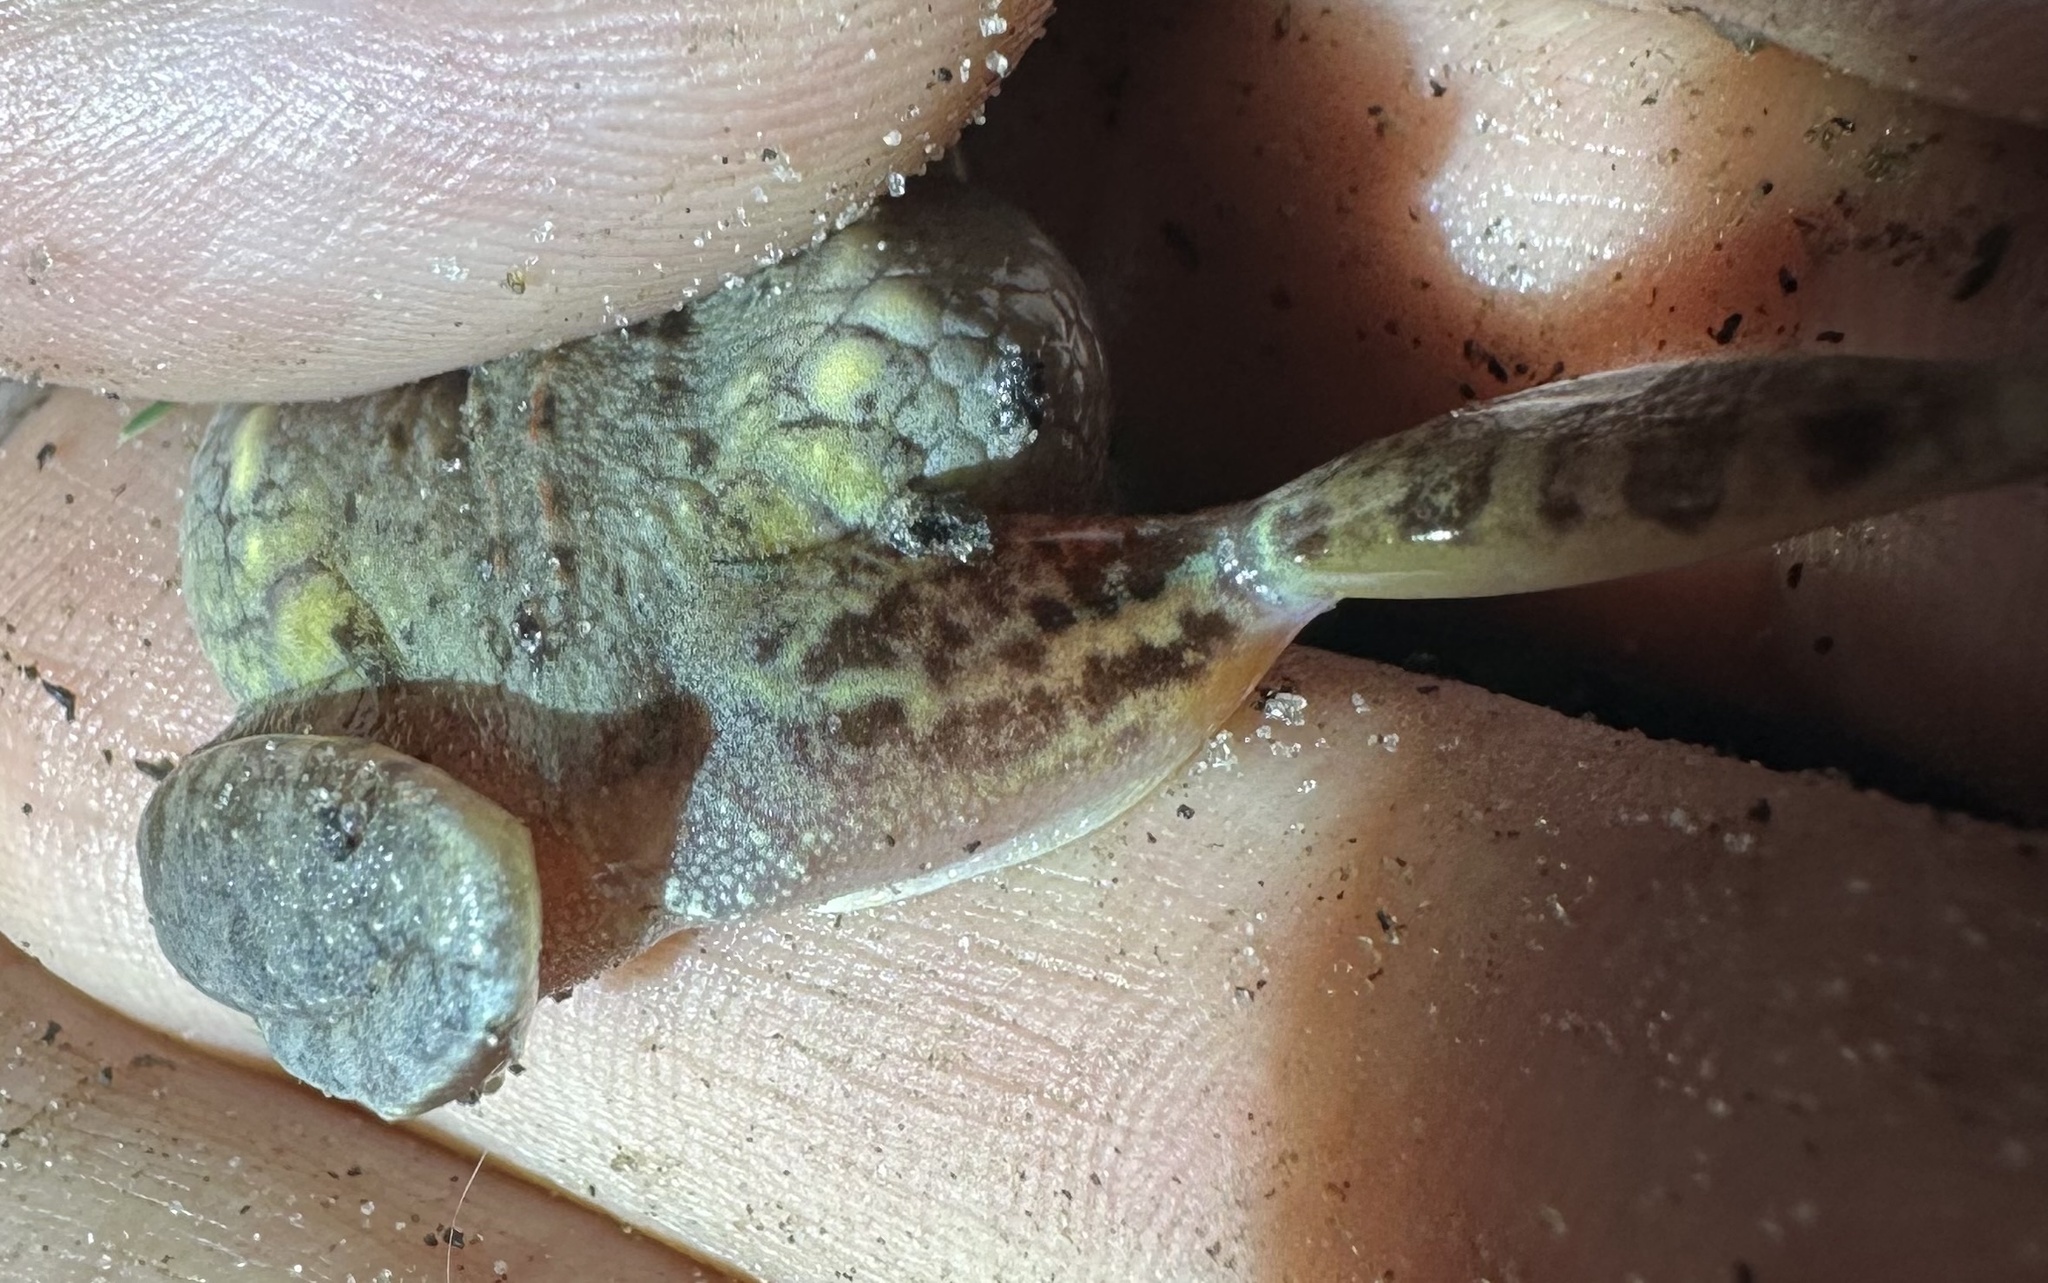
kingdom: Animalia
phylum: Chordata
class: Amphibia
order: Anura
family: Ptychadenidae
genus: Ptychadena
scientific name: Ptychadena mossambica
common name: Mozambique ridged frog
